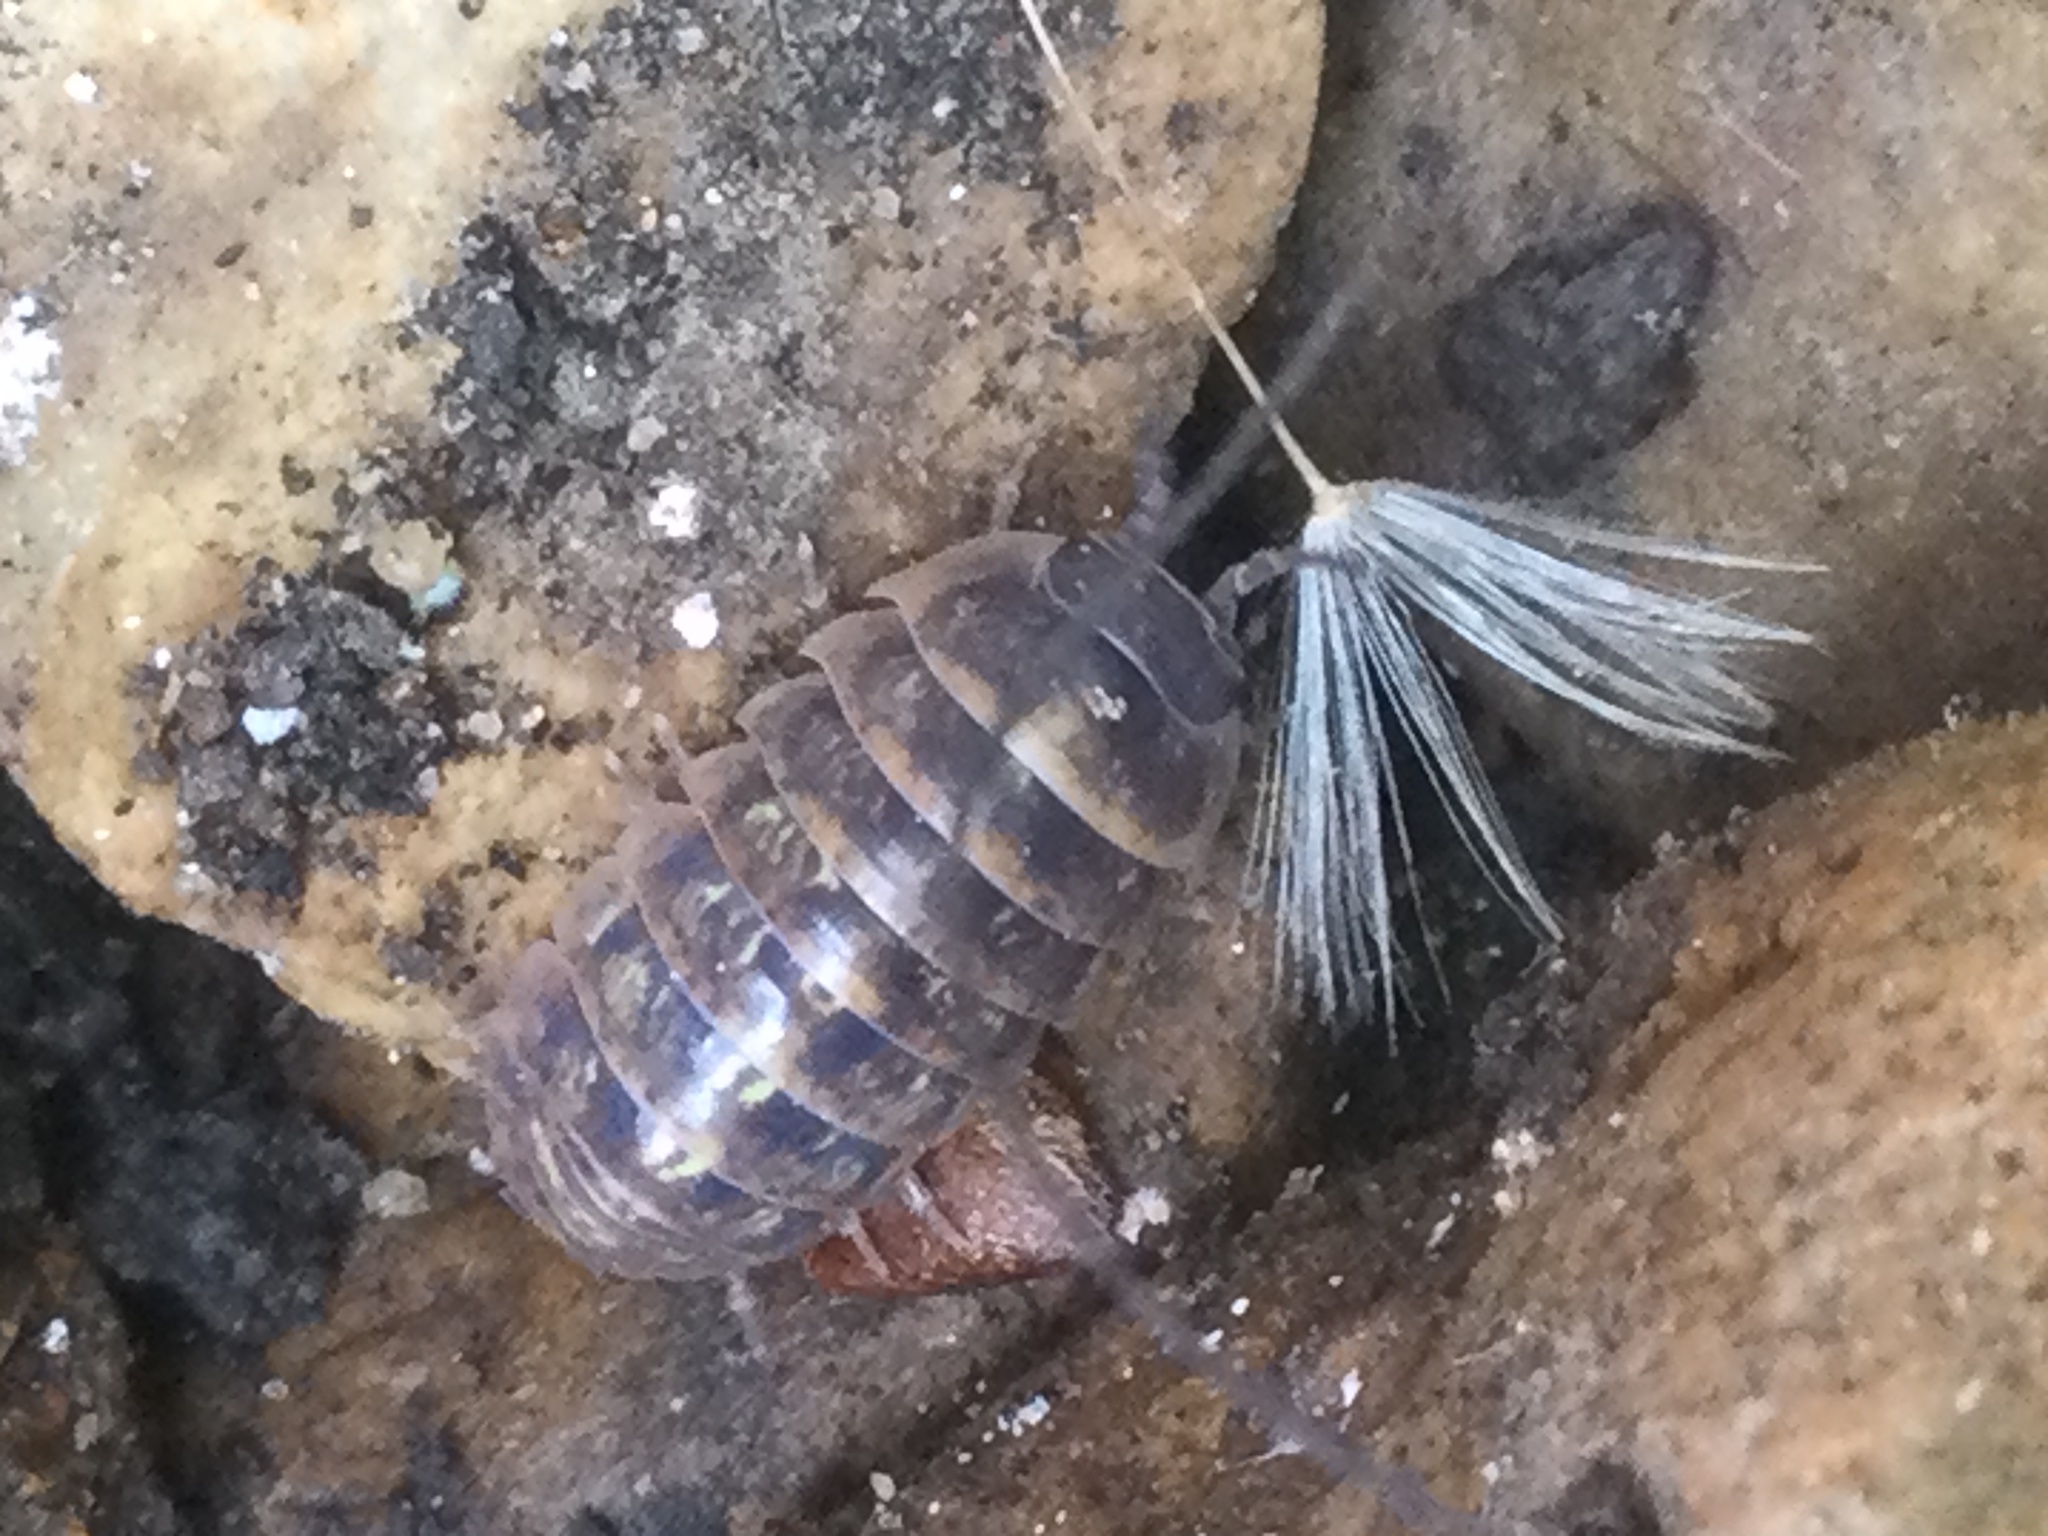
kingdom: Animalia
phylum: Arthropoda
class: Malacostraca
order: Isopoda
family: Armadillidiidae
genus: Armadillidium
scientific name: Armadillidium vulgare
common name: Common pill woodlouse
